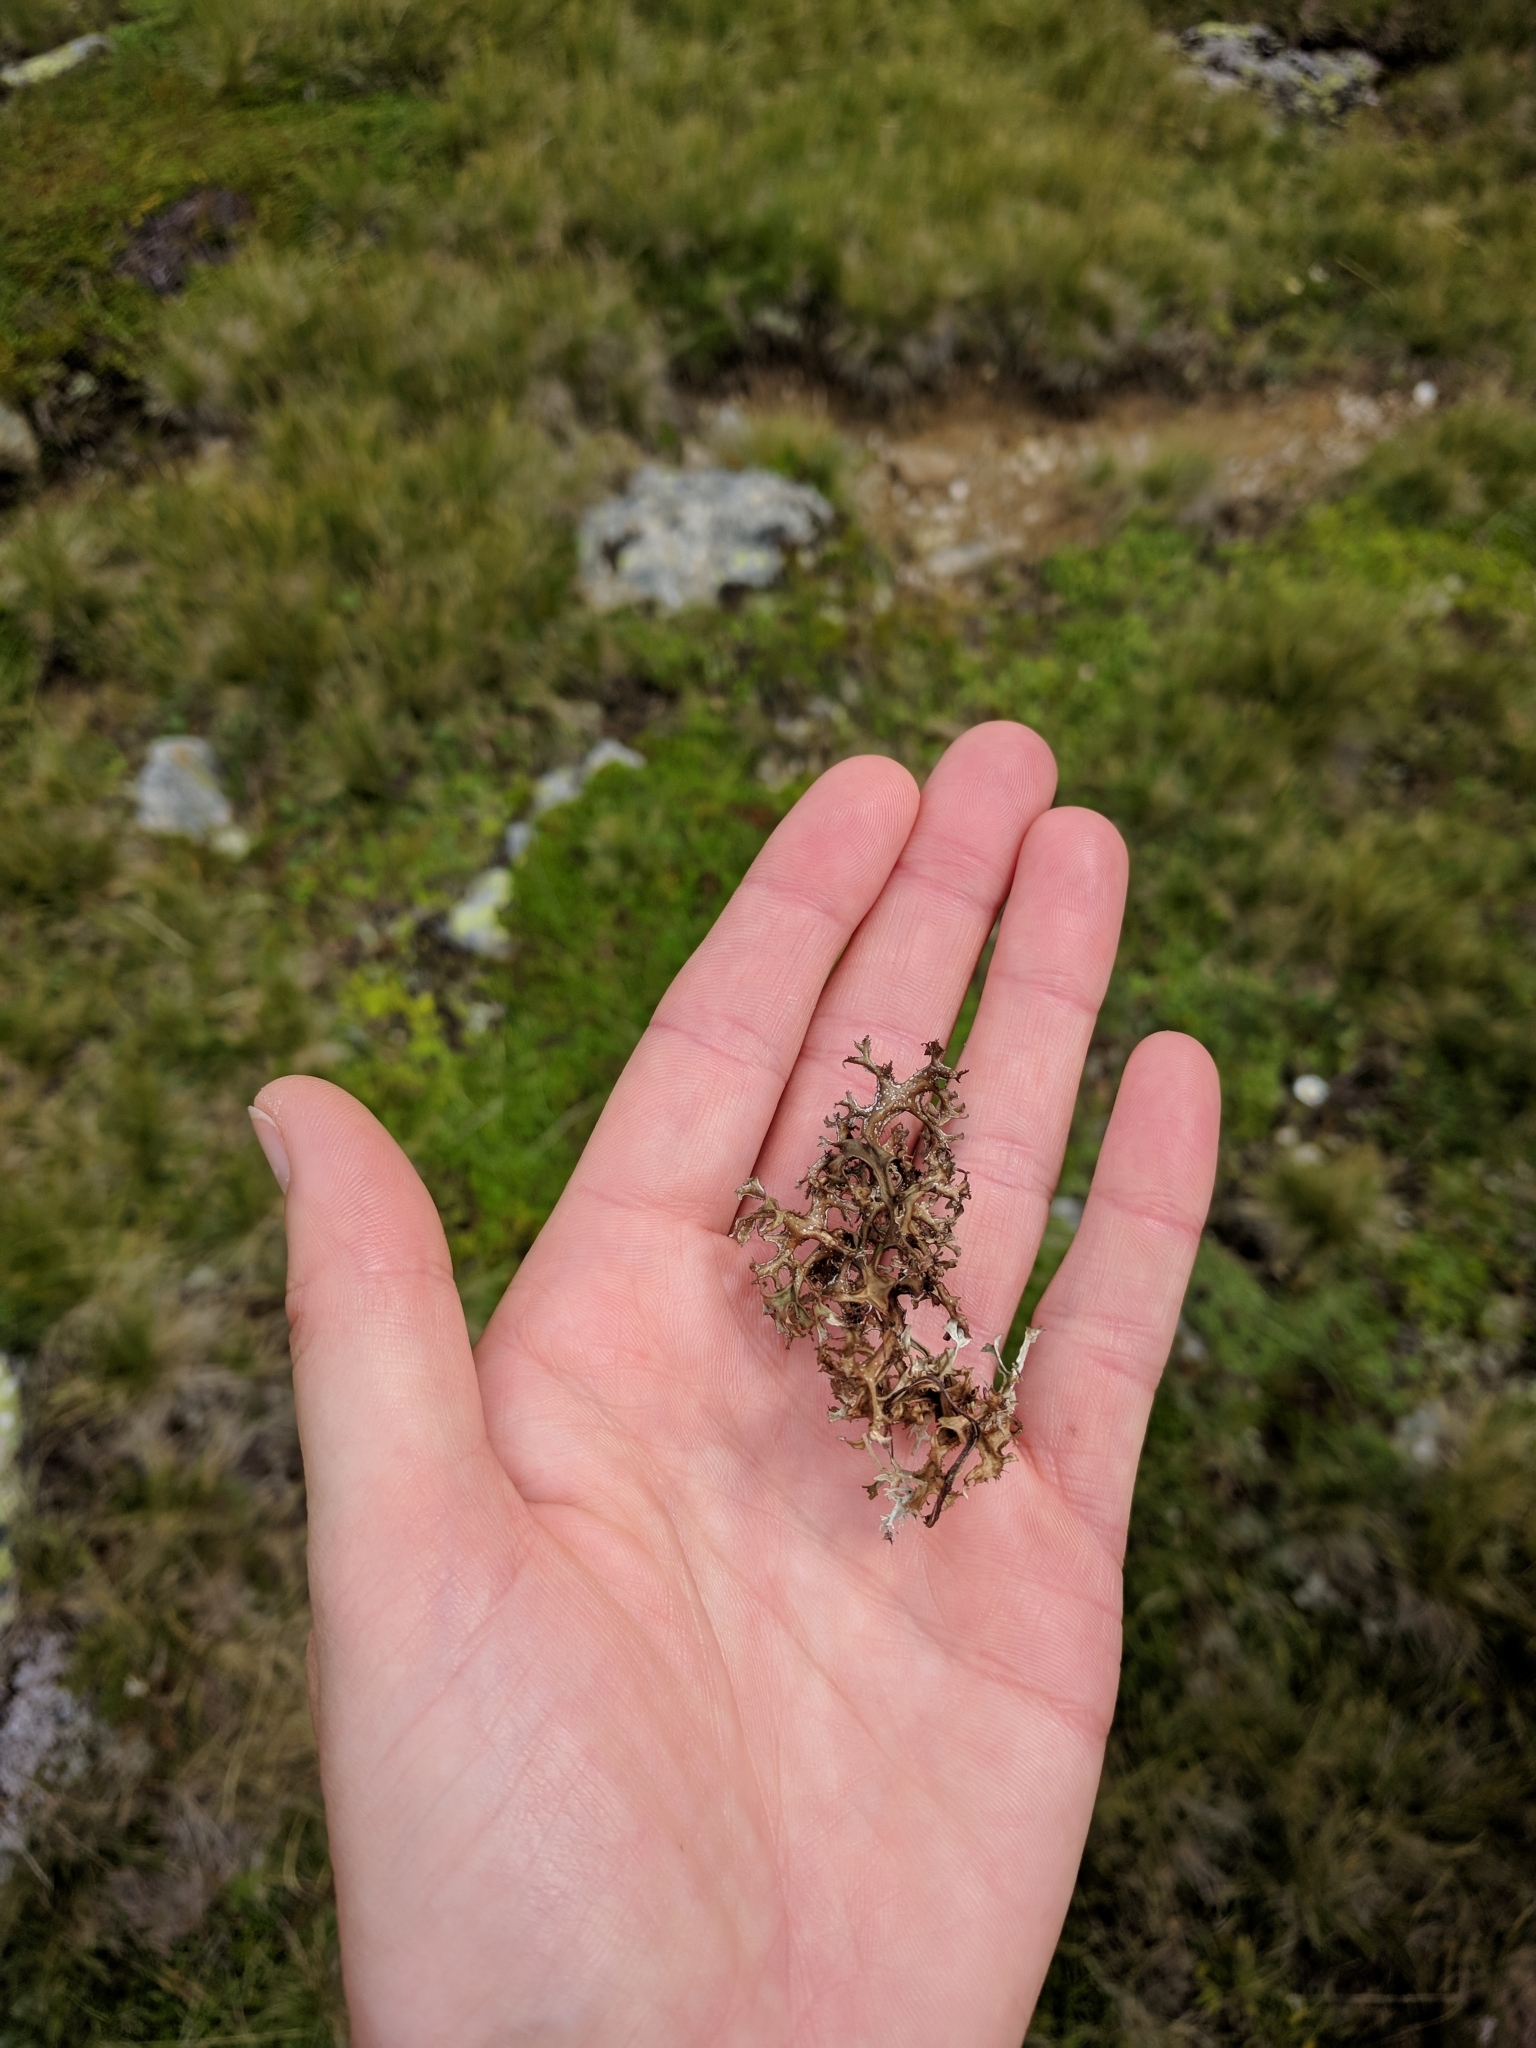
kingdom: Fungi
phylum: Ascomycota
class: Lecanoromycetes
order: Lecanorales
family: Parmeliaceae
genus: Cetraria
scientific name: Cetraria islandica
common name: Iceland lichen
